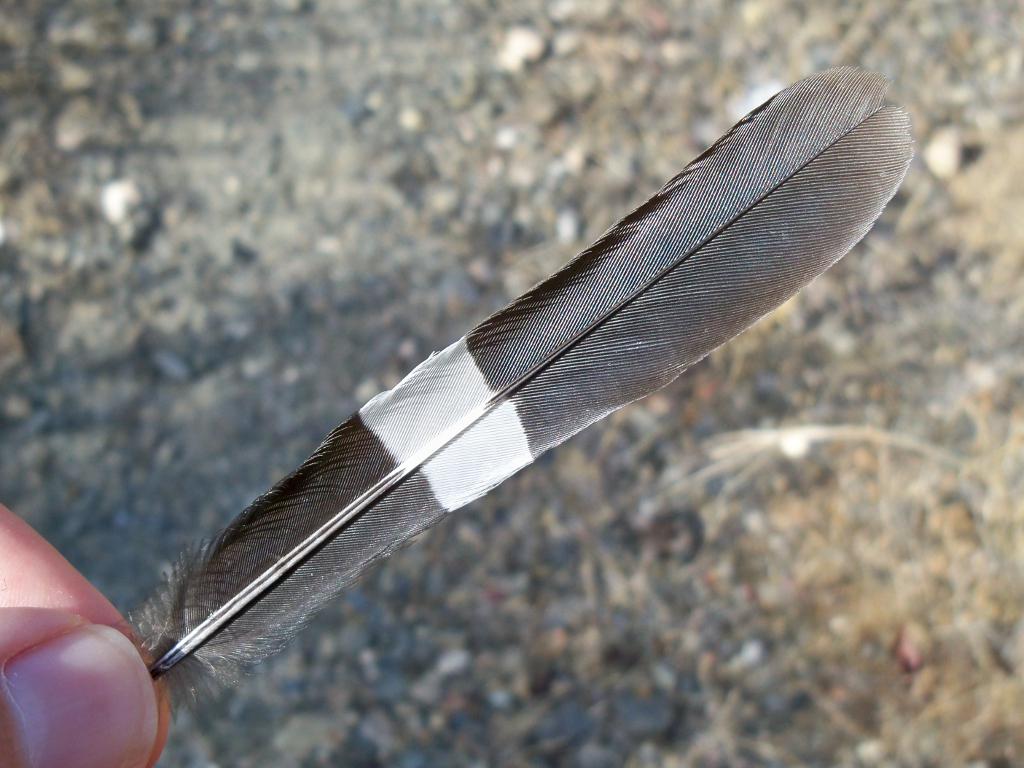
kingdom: Animalia
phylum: Chordata
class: Aves
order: Bucerotiformes
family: Upupidae
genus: Upupa
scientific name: Upupa epops
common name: Eurasian hoopoe
